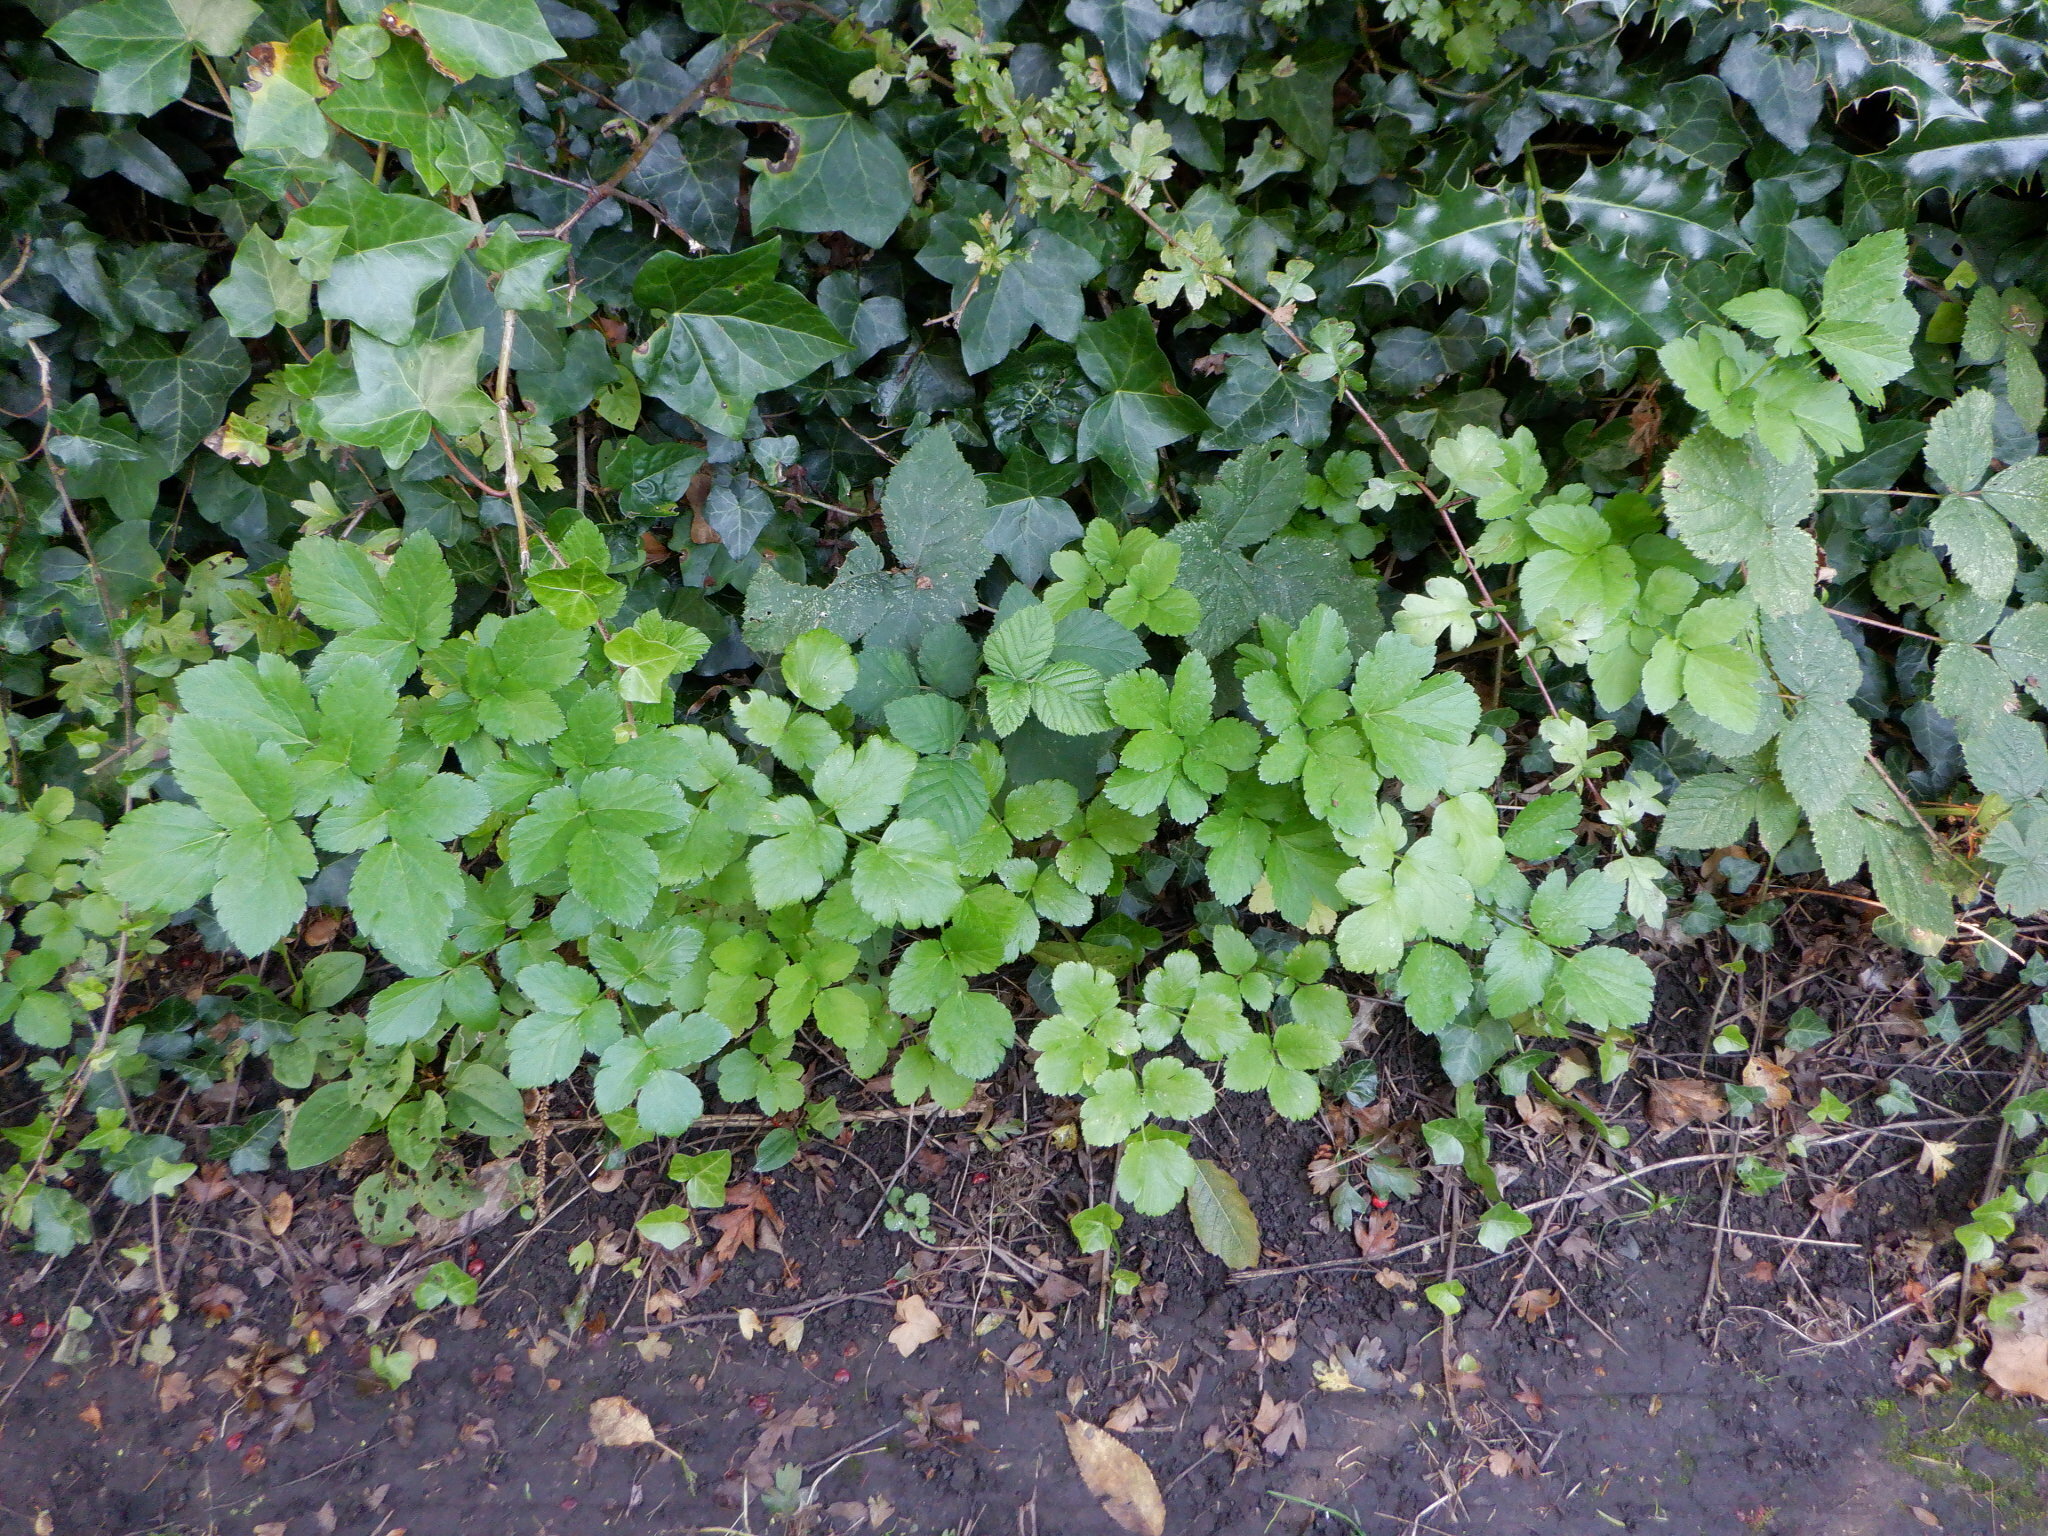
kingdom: Plantae
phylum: Tracheophyta
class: Magnoliopsida
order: Apiales
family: Apiaceae
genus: Smyrnium
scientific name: Smyrnium olusatrum
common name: Alexanders
